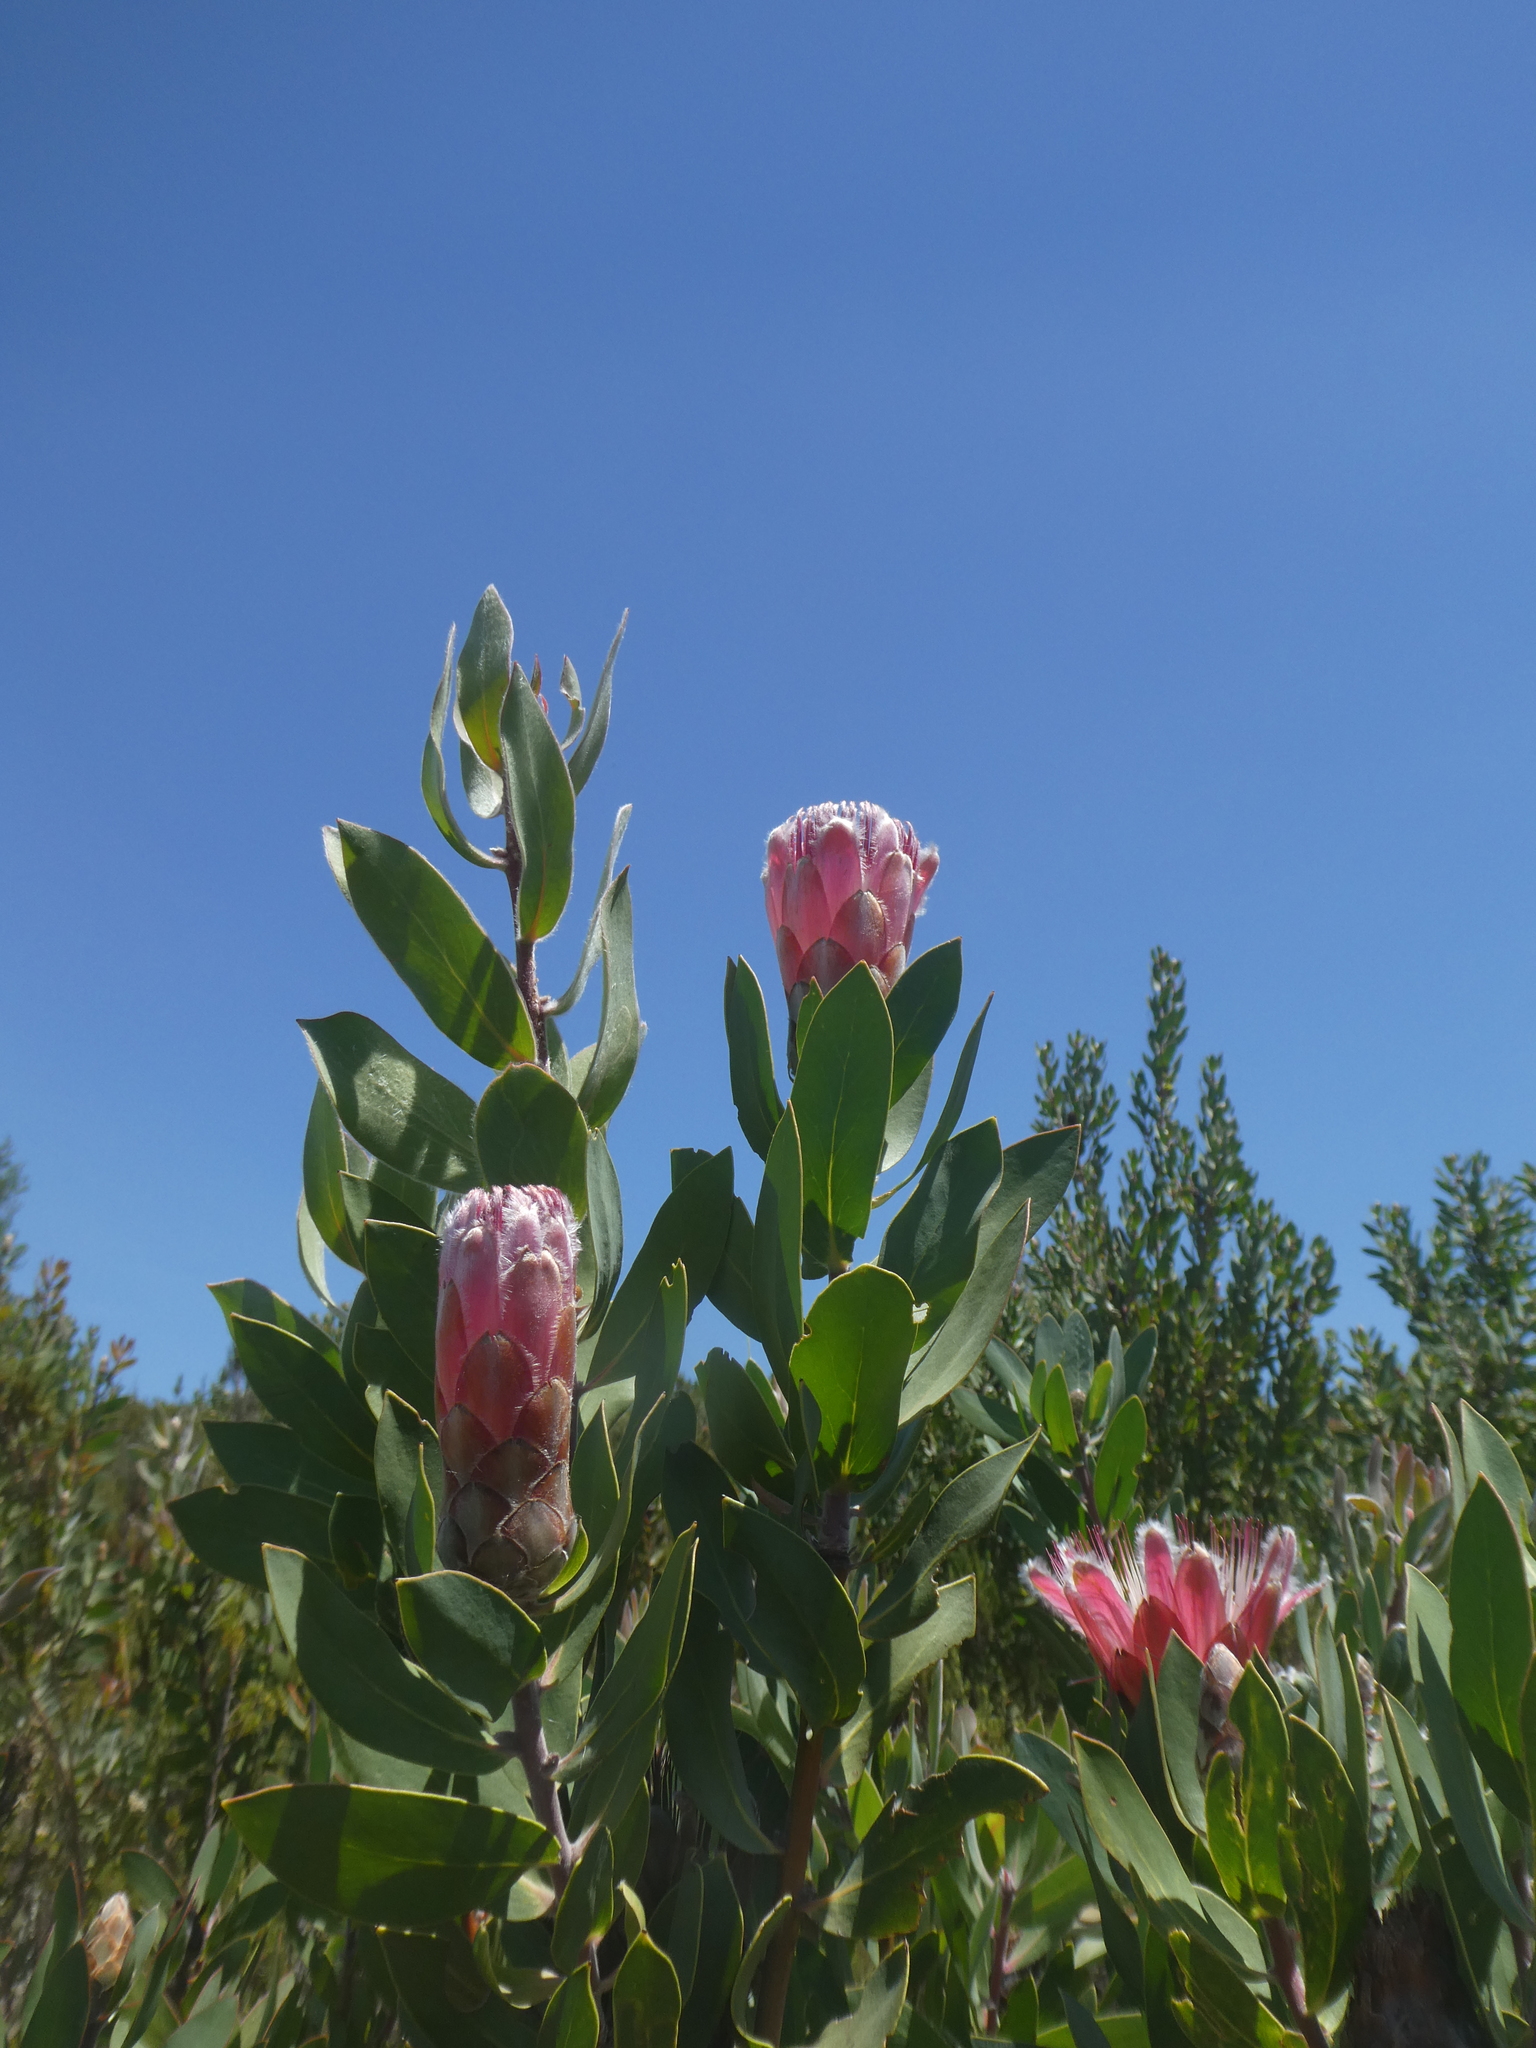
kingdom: Plantae
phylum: Tracheophyta
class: Magnoliopsida
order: Proteales
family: Proteaceae
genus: Protea
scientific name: Protea
